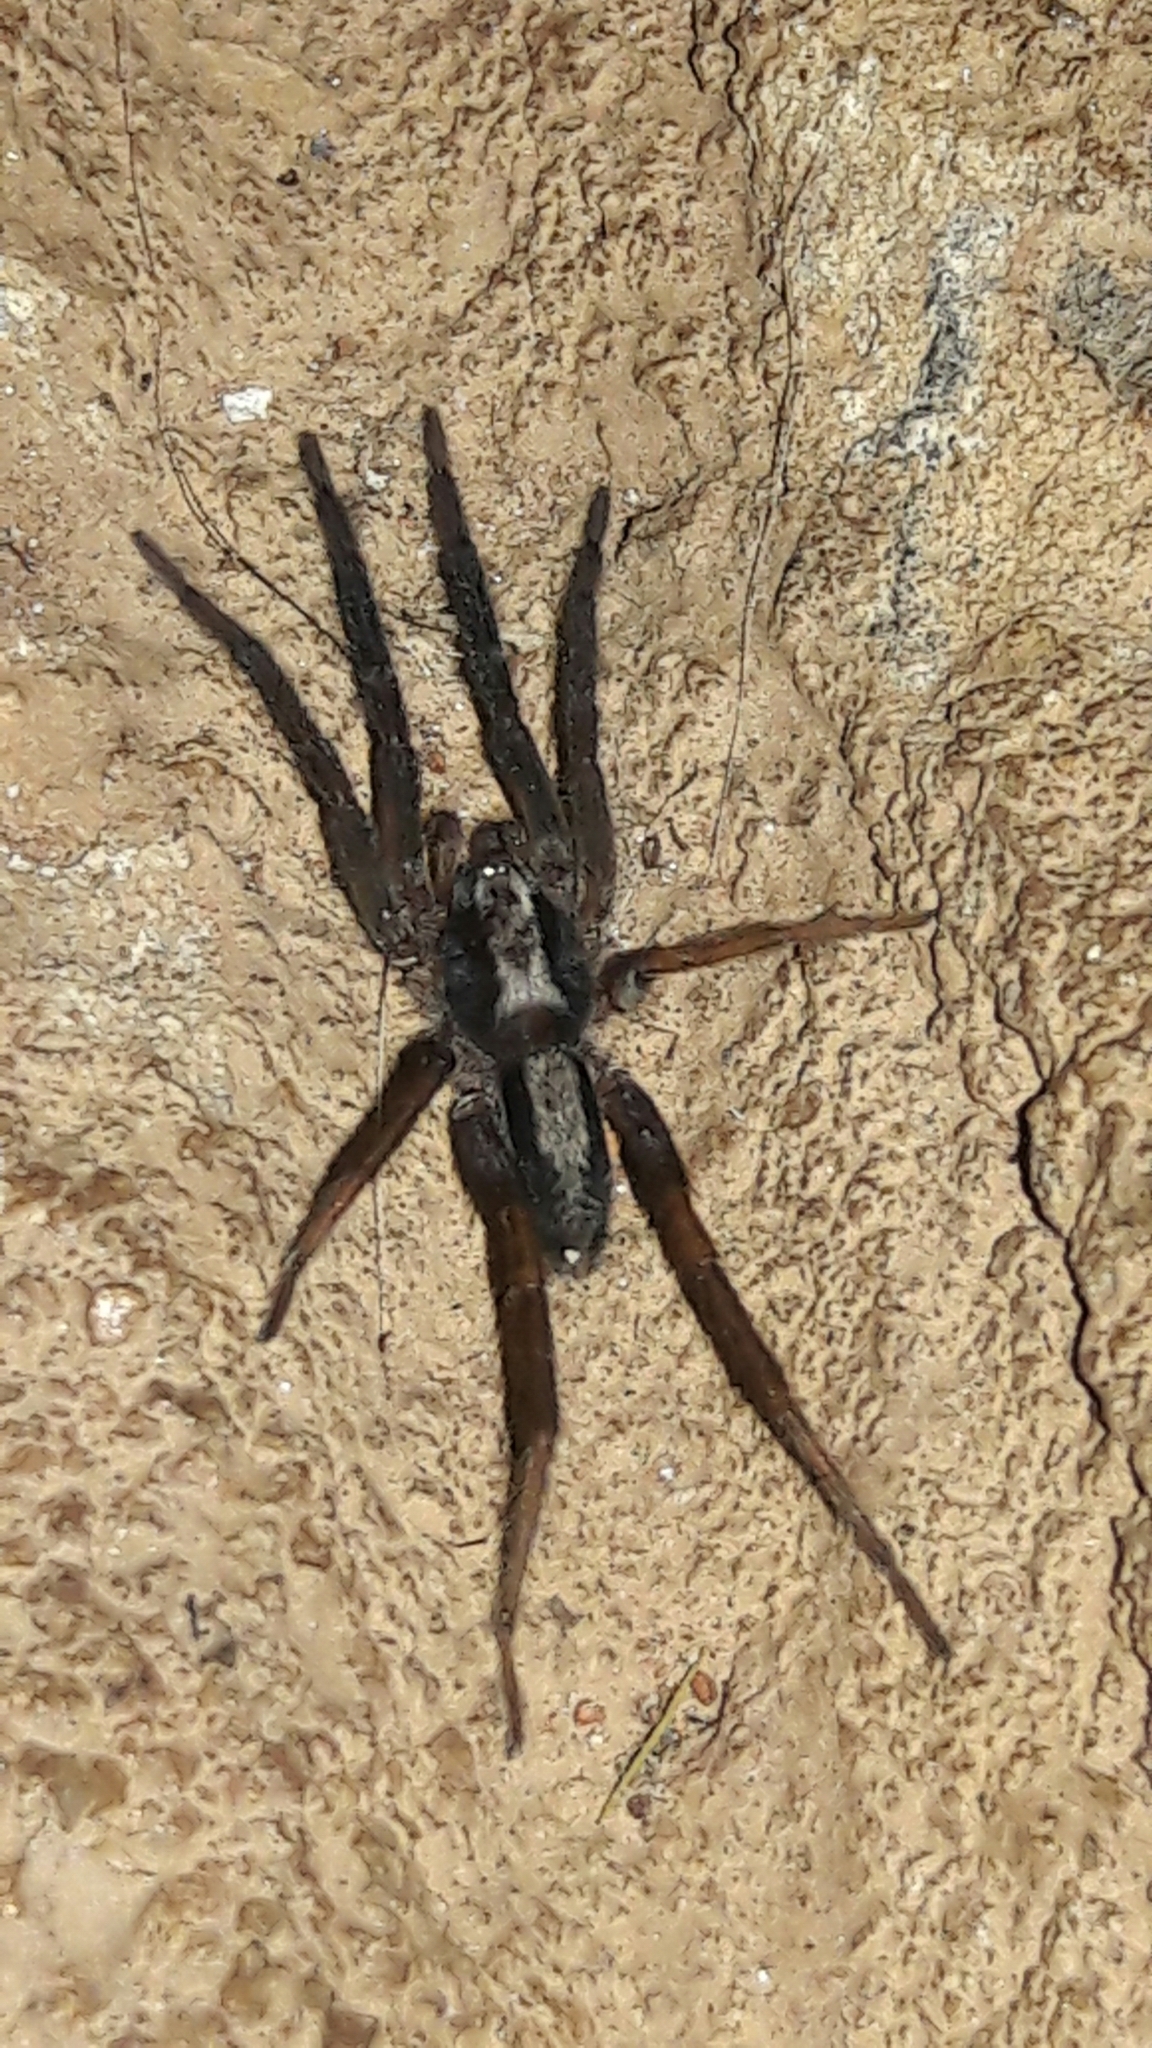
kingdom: Animalia
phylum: Arthropoda
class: Arachnida
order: Araneae
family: Miturgidae
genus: Teminius
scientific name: Teminius insularis
